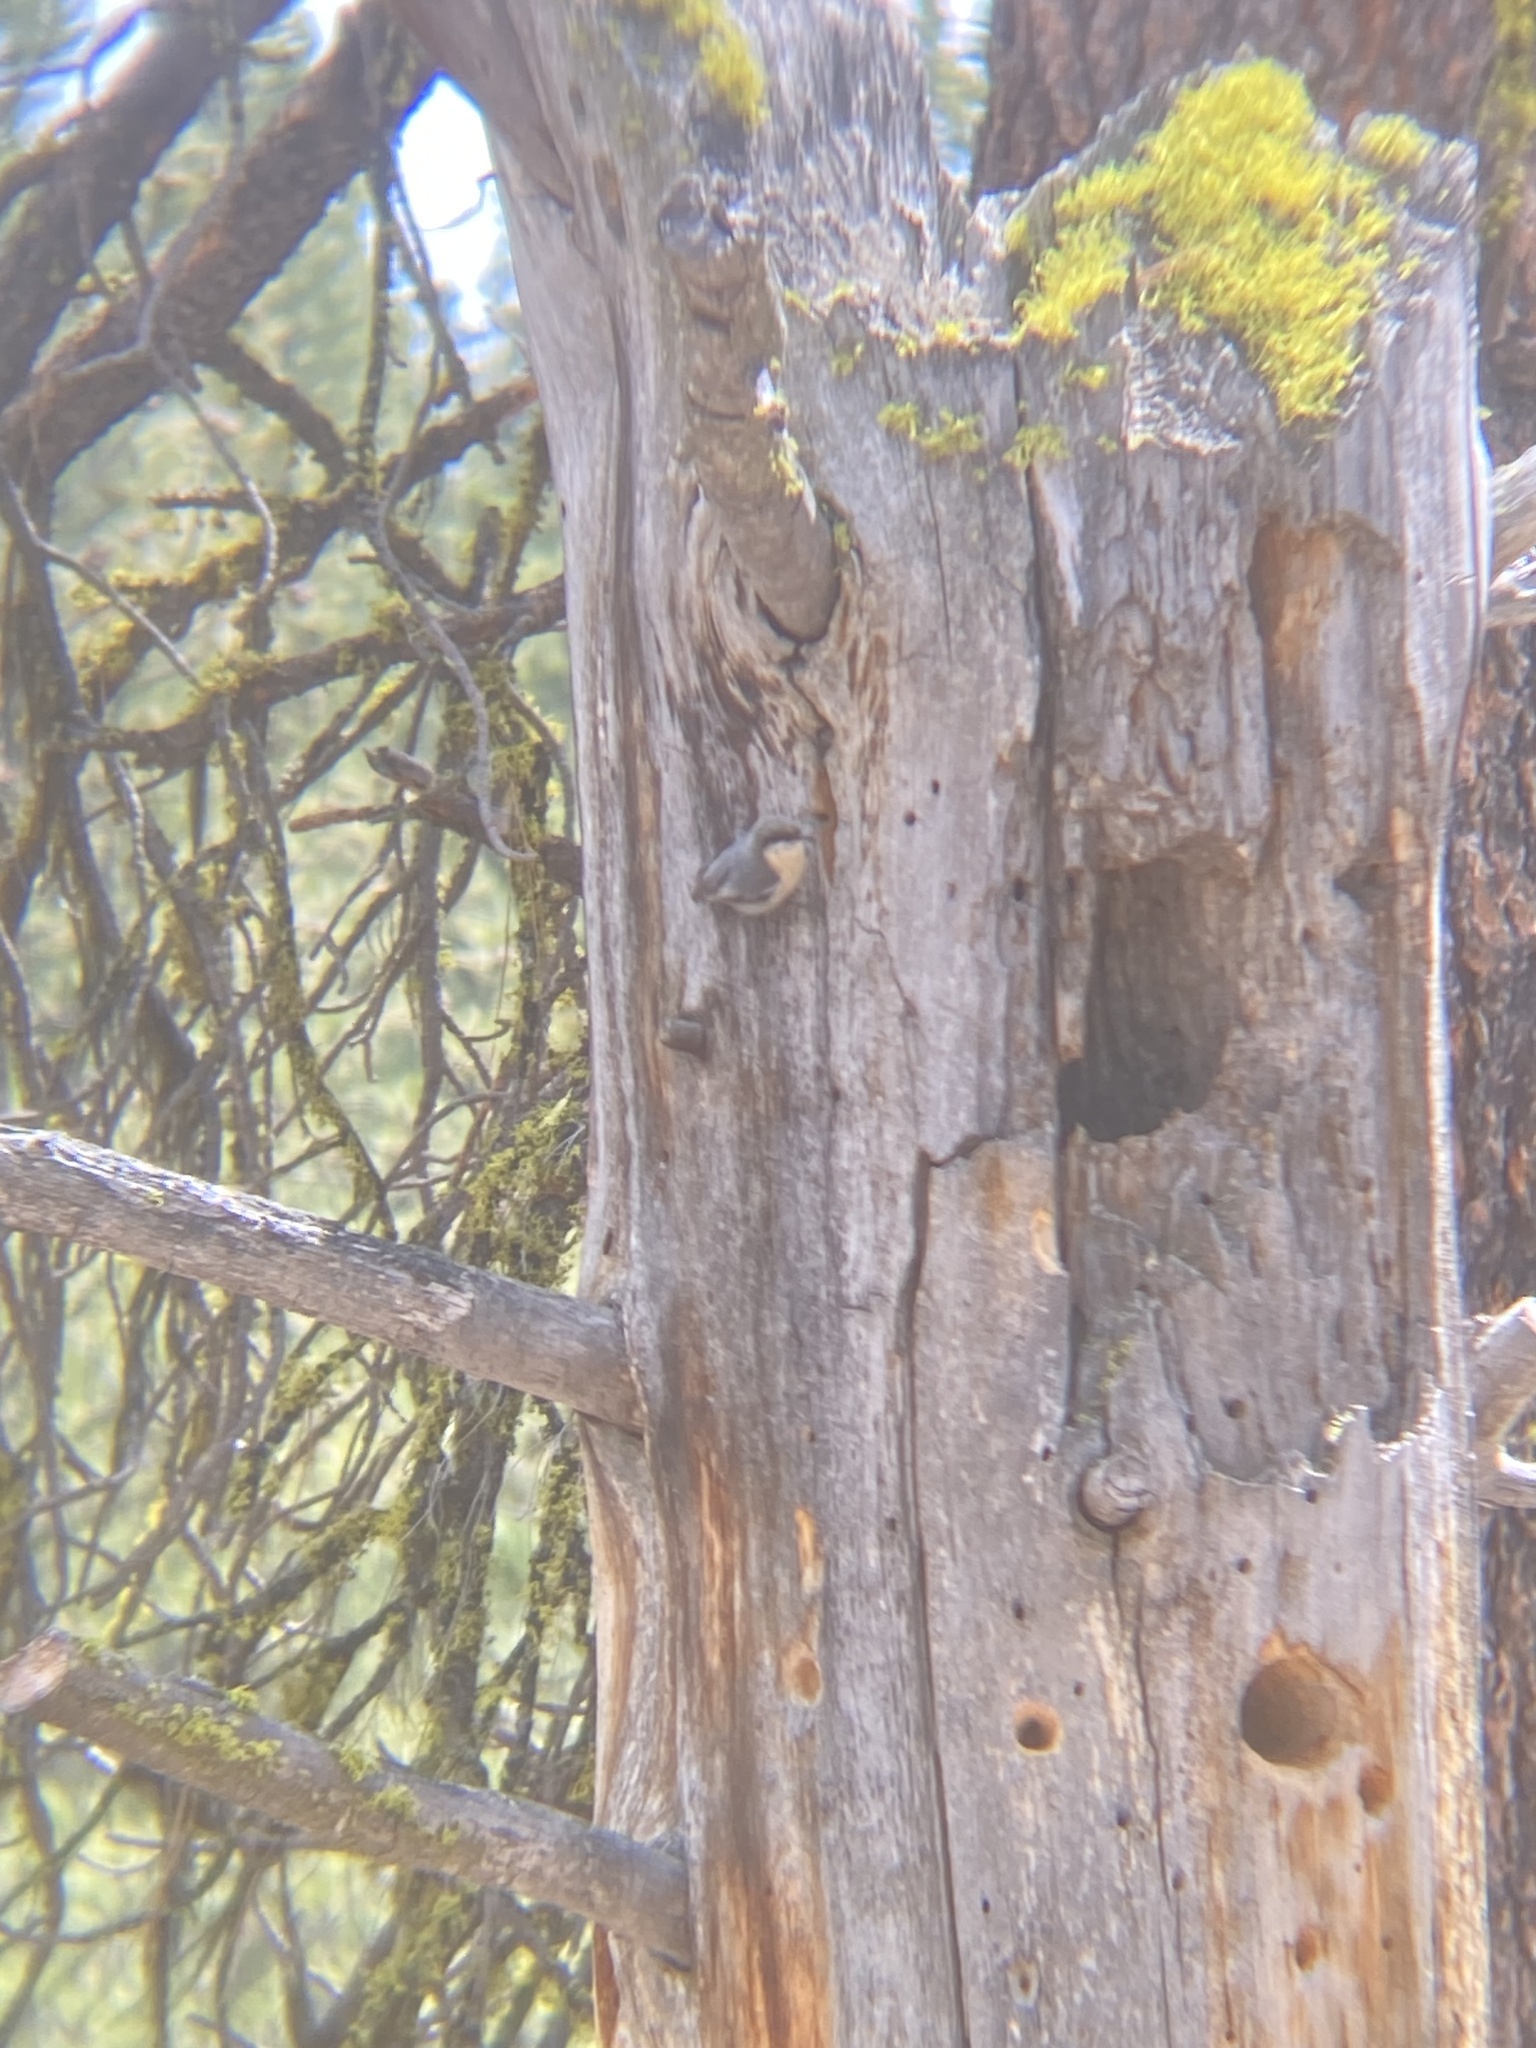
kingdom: Animalia
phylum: Chordata
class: Aves
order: Passeriformes
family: Sittidae
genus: Sitta
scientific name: Sitta pygmaea
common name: Pygmy nuthatch
